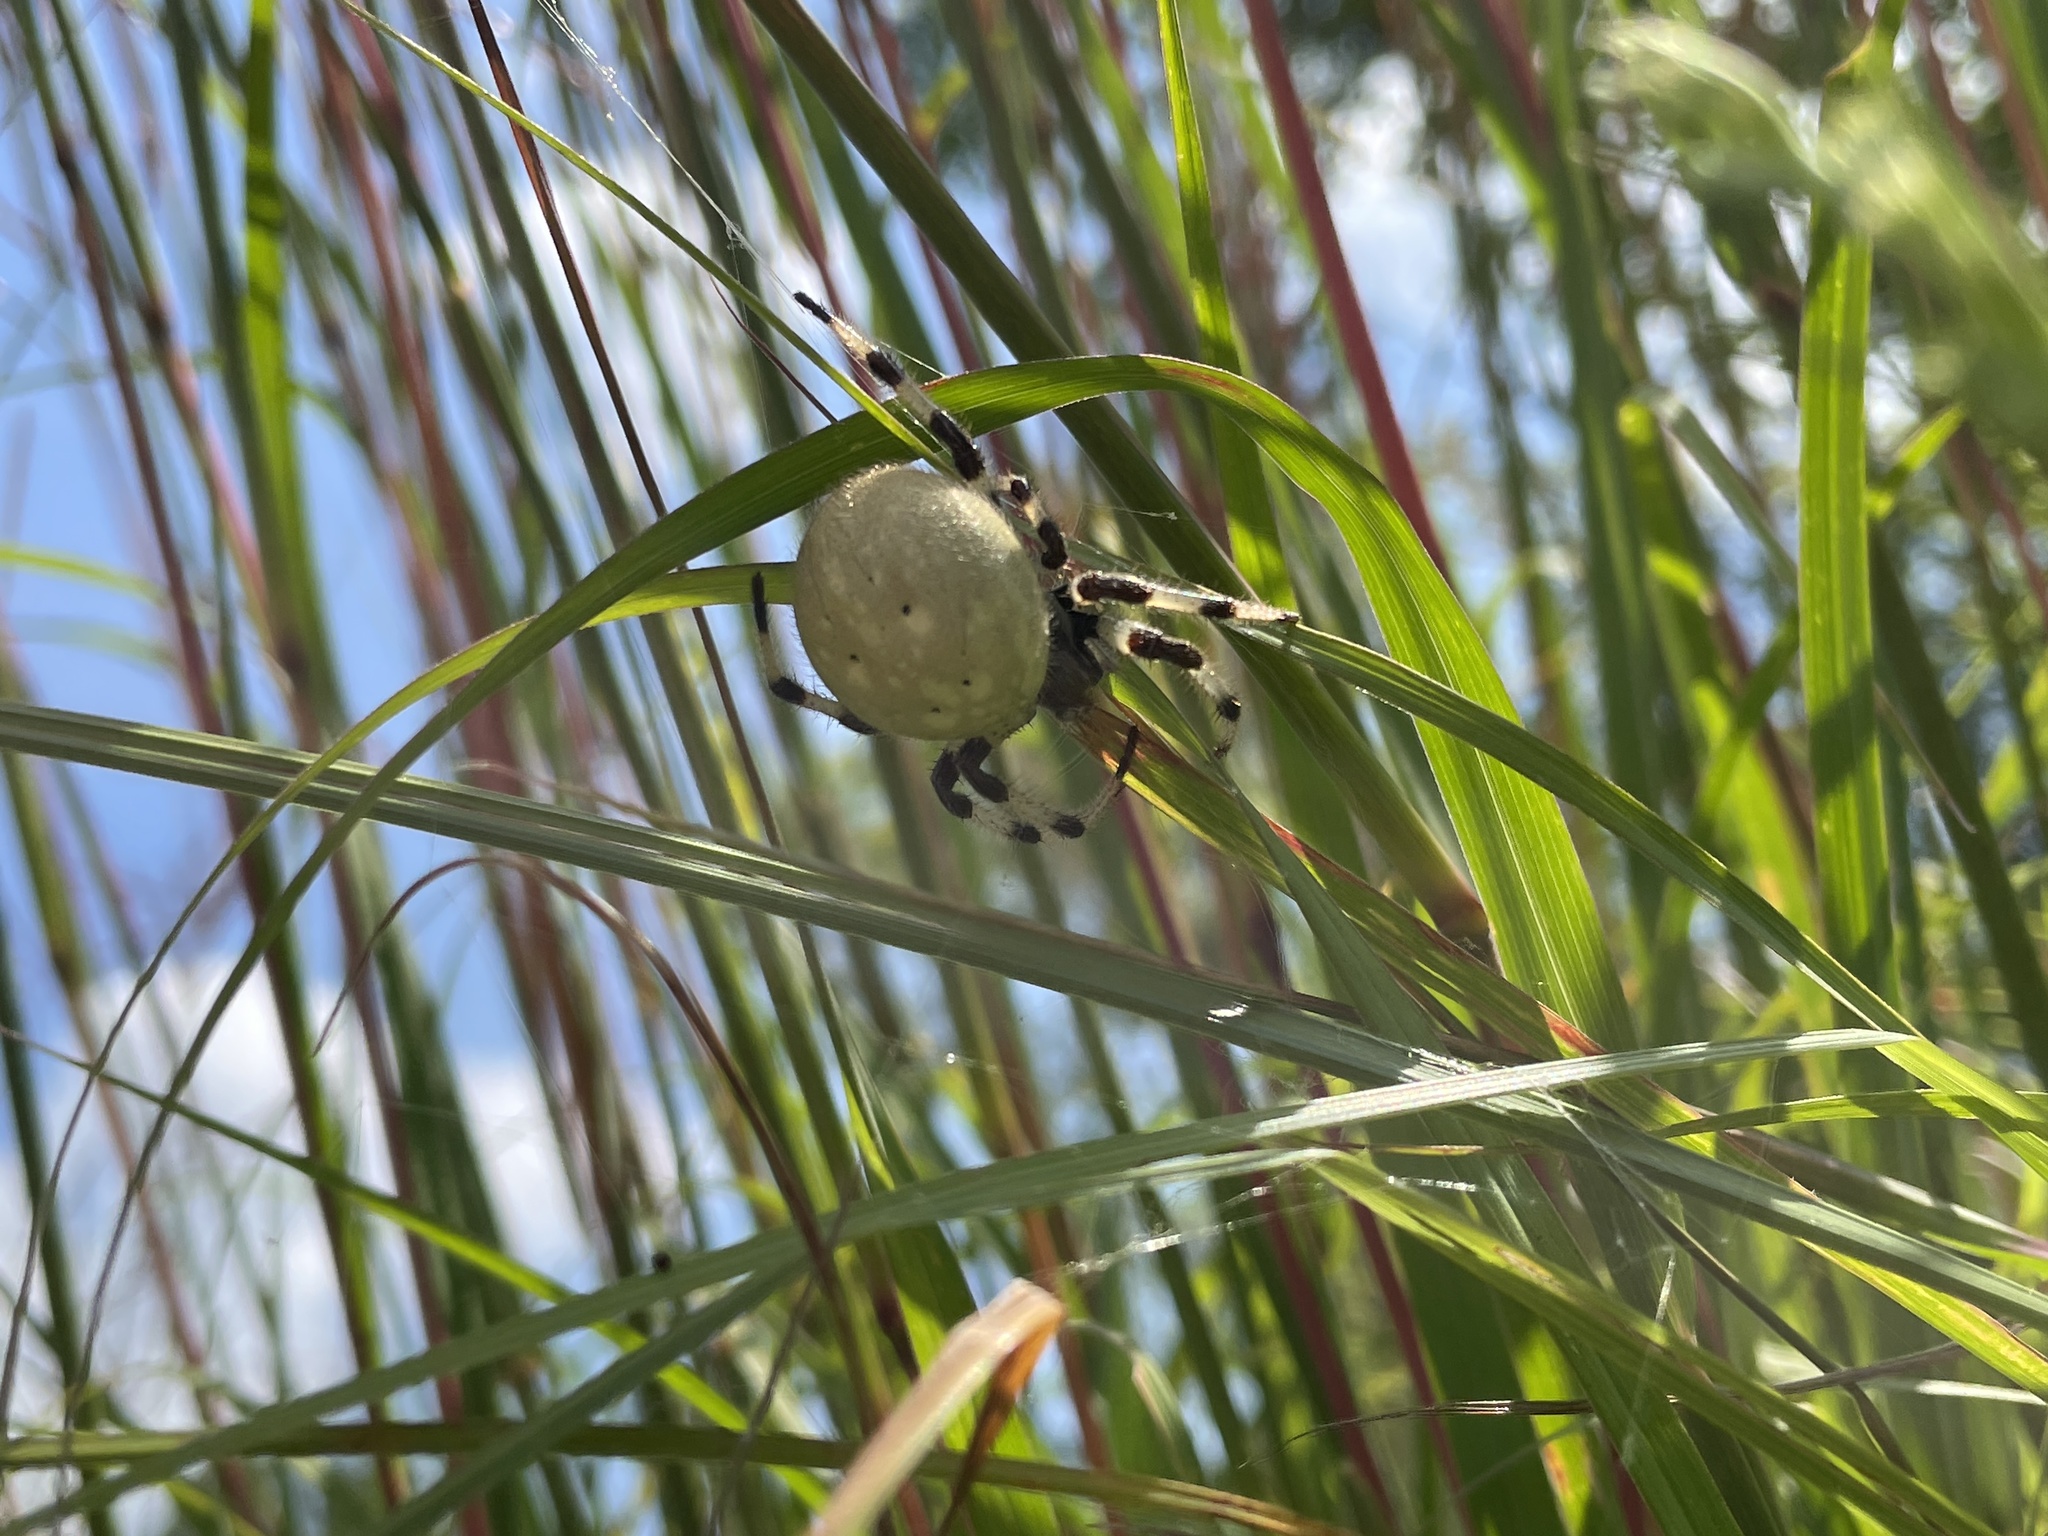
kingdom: Animalia
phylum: Arthropoda
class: Arachnida
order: Araneae
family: Araneidae
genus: Araneus
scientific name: Araneus trifolium
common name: Shamrock orbweaver
